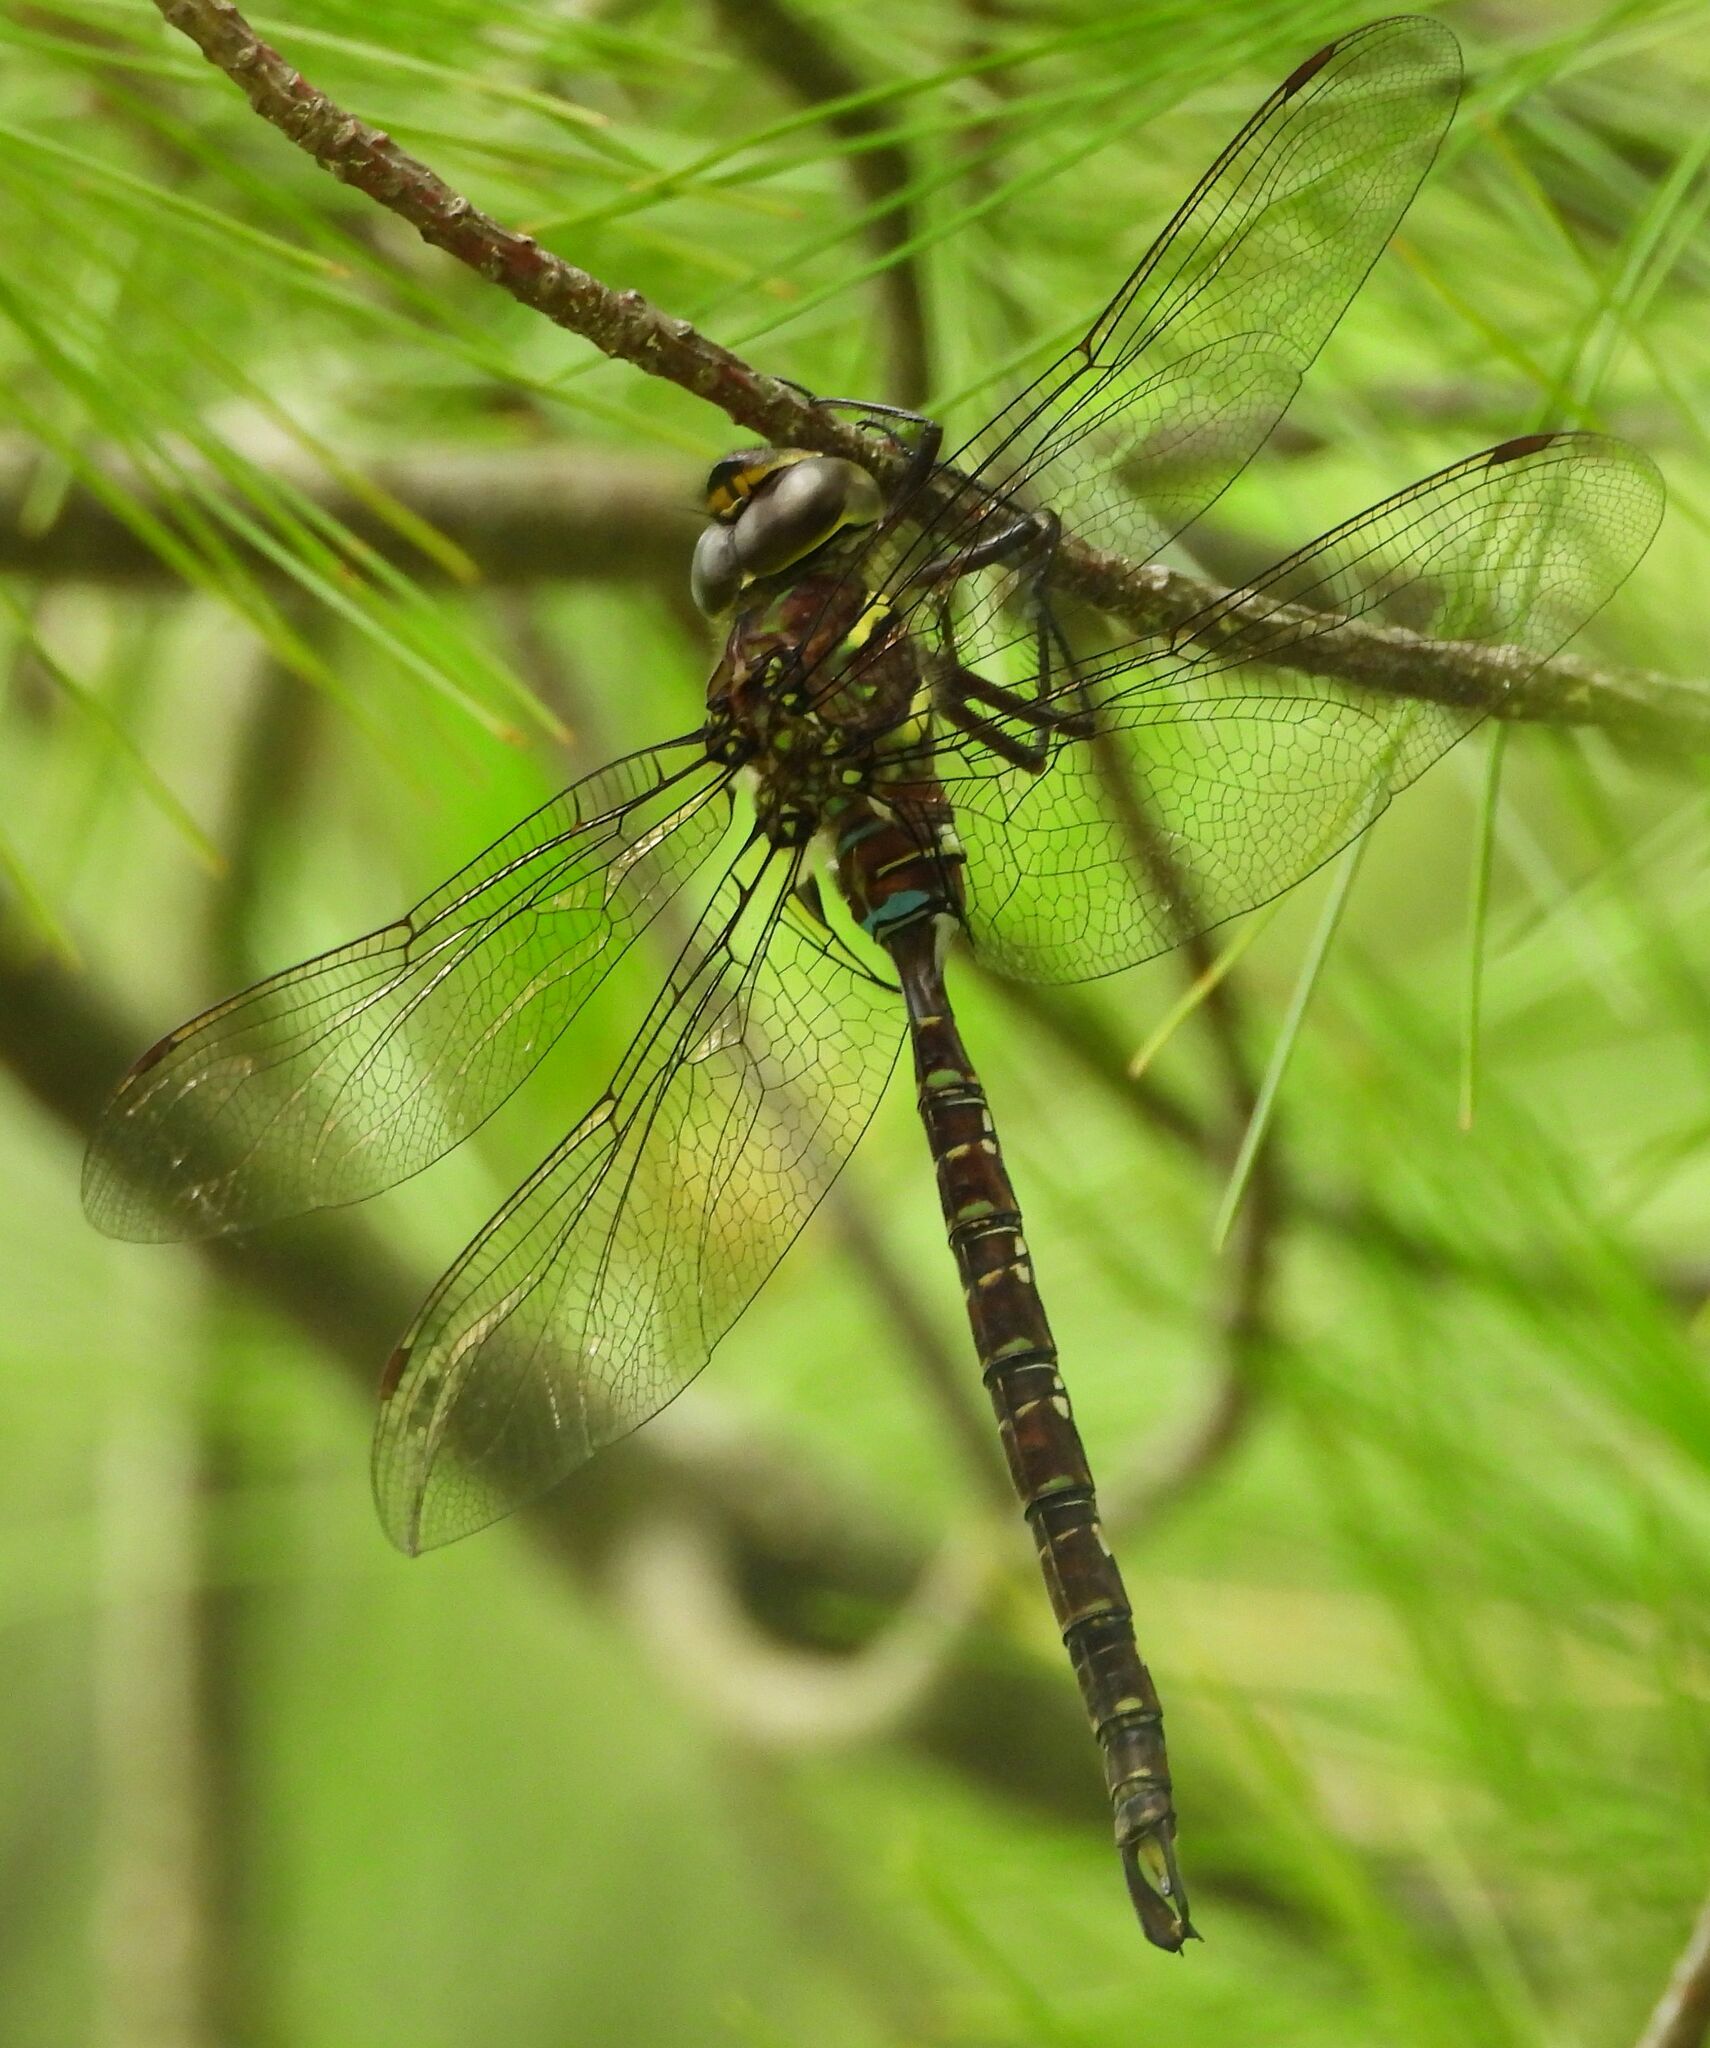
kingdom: Animalia
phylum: Arthropoda
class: Insecta
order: Odonata
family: Aeshnidae
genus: Aeshna
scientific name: Aeshna umbrosa
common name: Shadow darner
